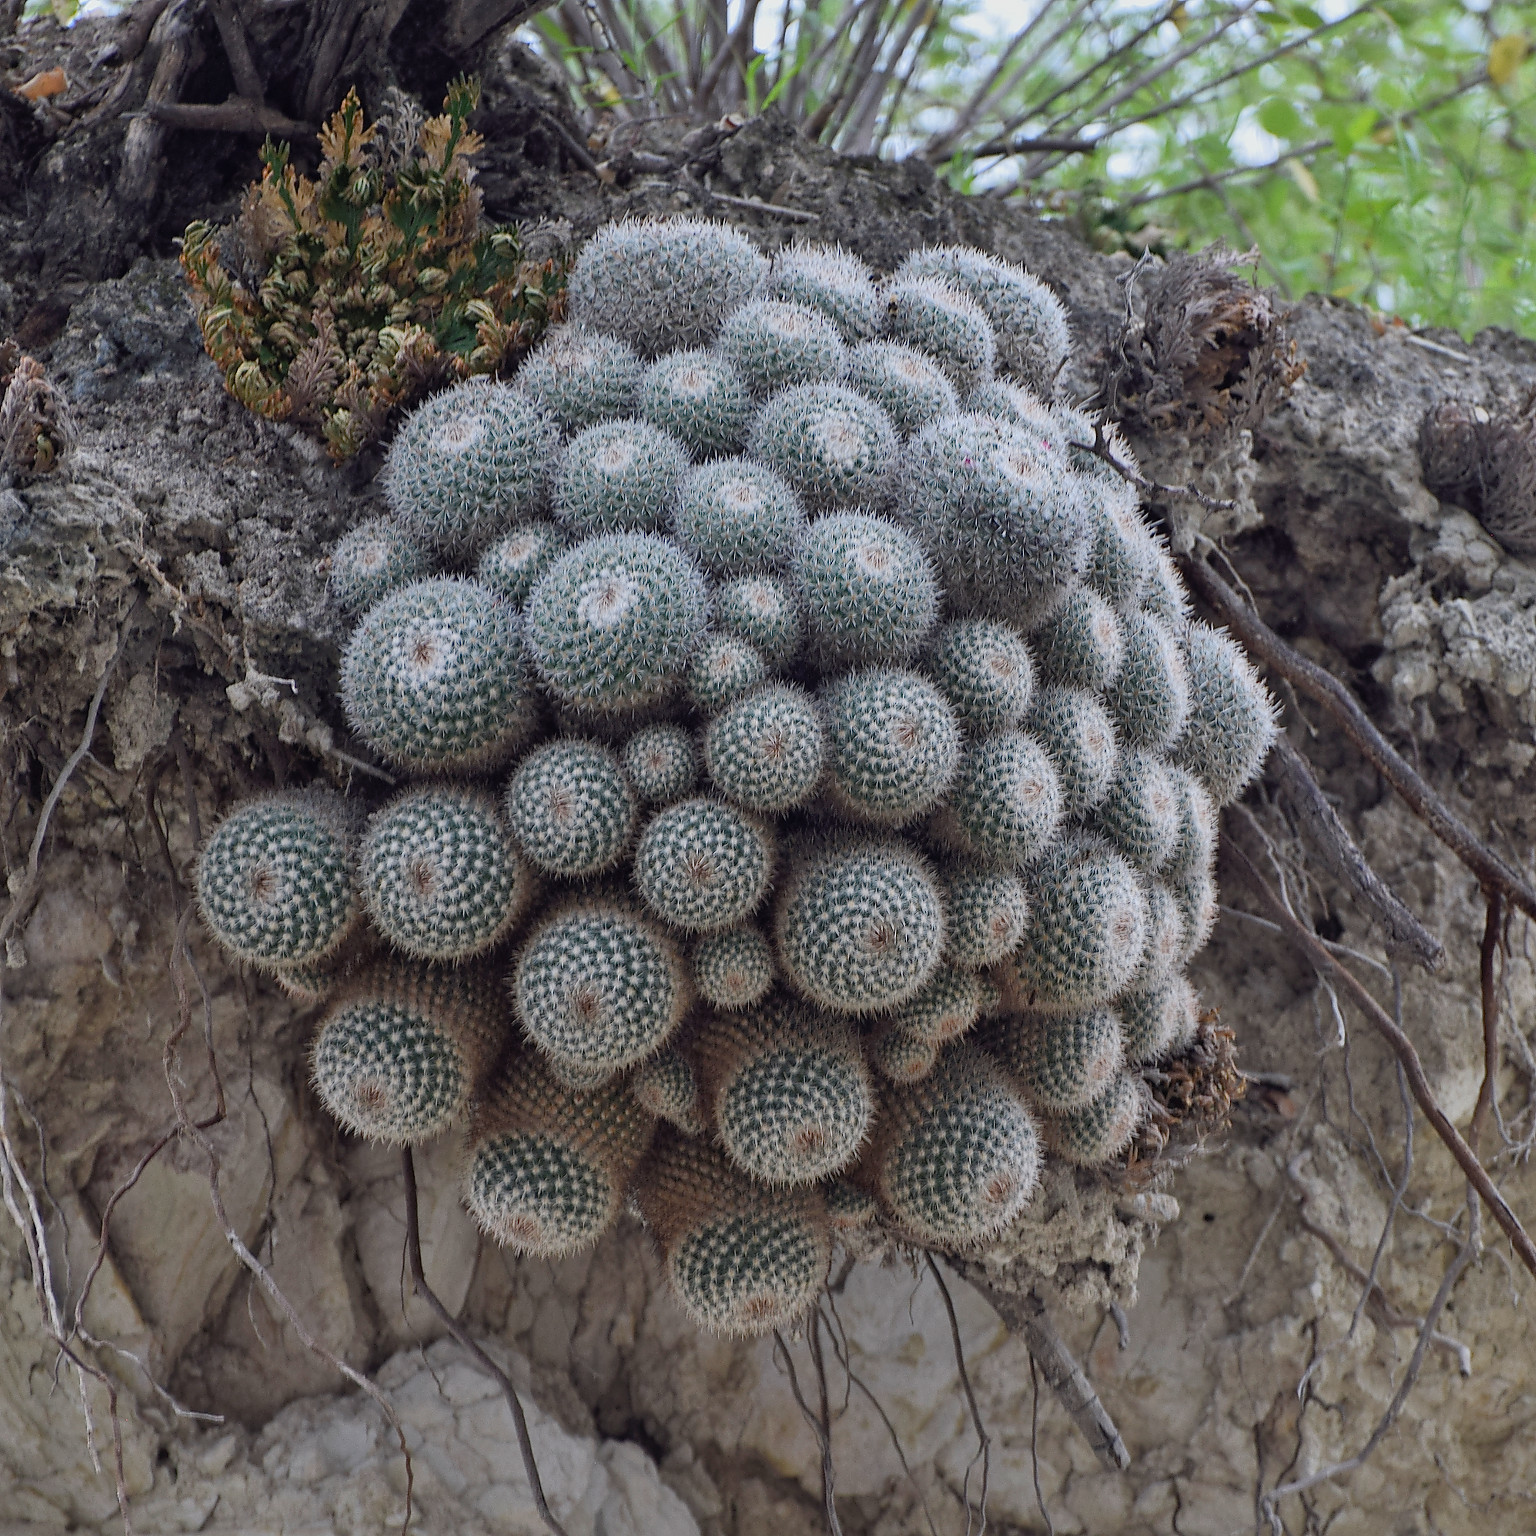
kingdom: Plantae
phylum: Tracheophyta
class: Magnoliopsida
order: Caryophyllales
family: Cactaceae
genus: Mammillaria
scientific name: Mammillaria geminispina
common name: Whitey
